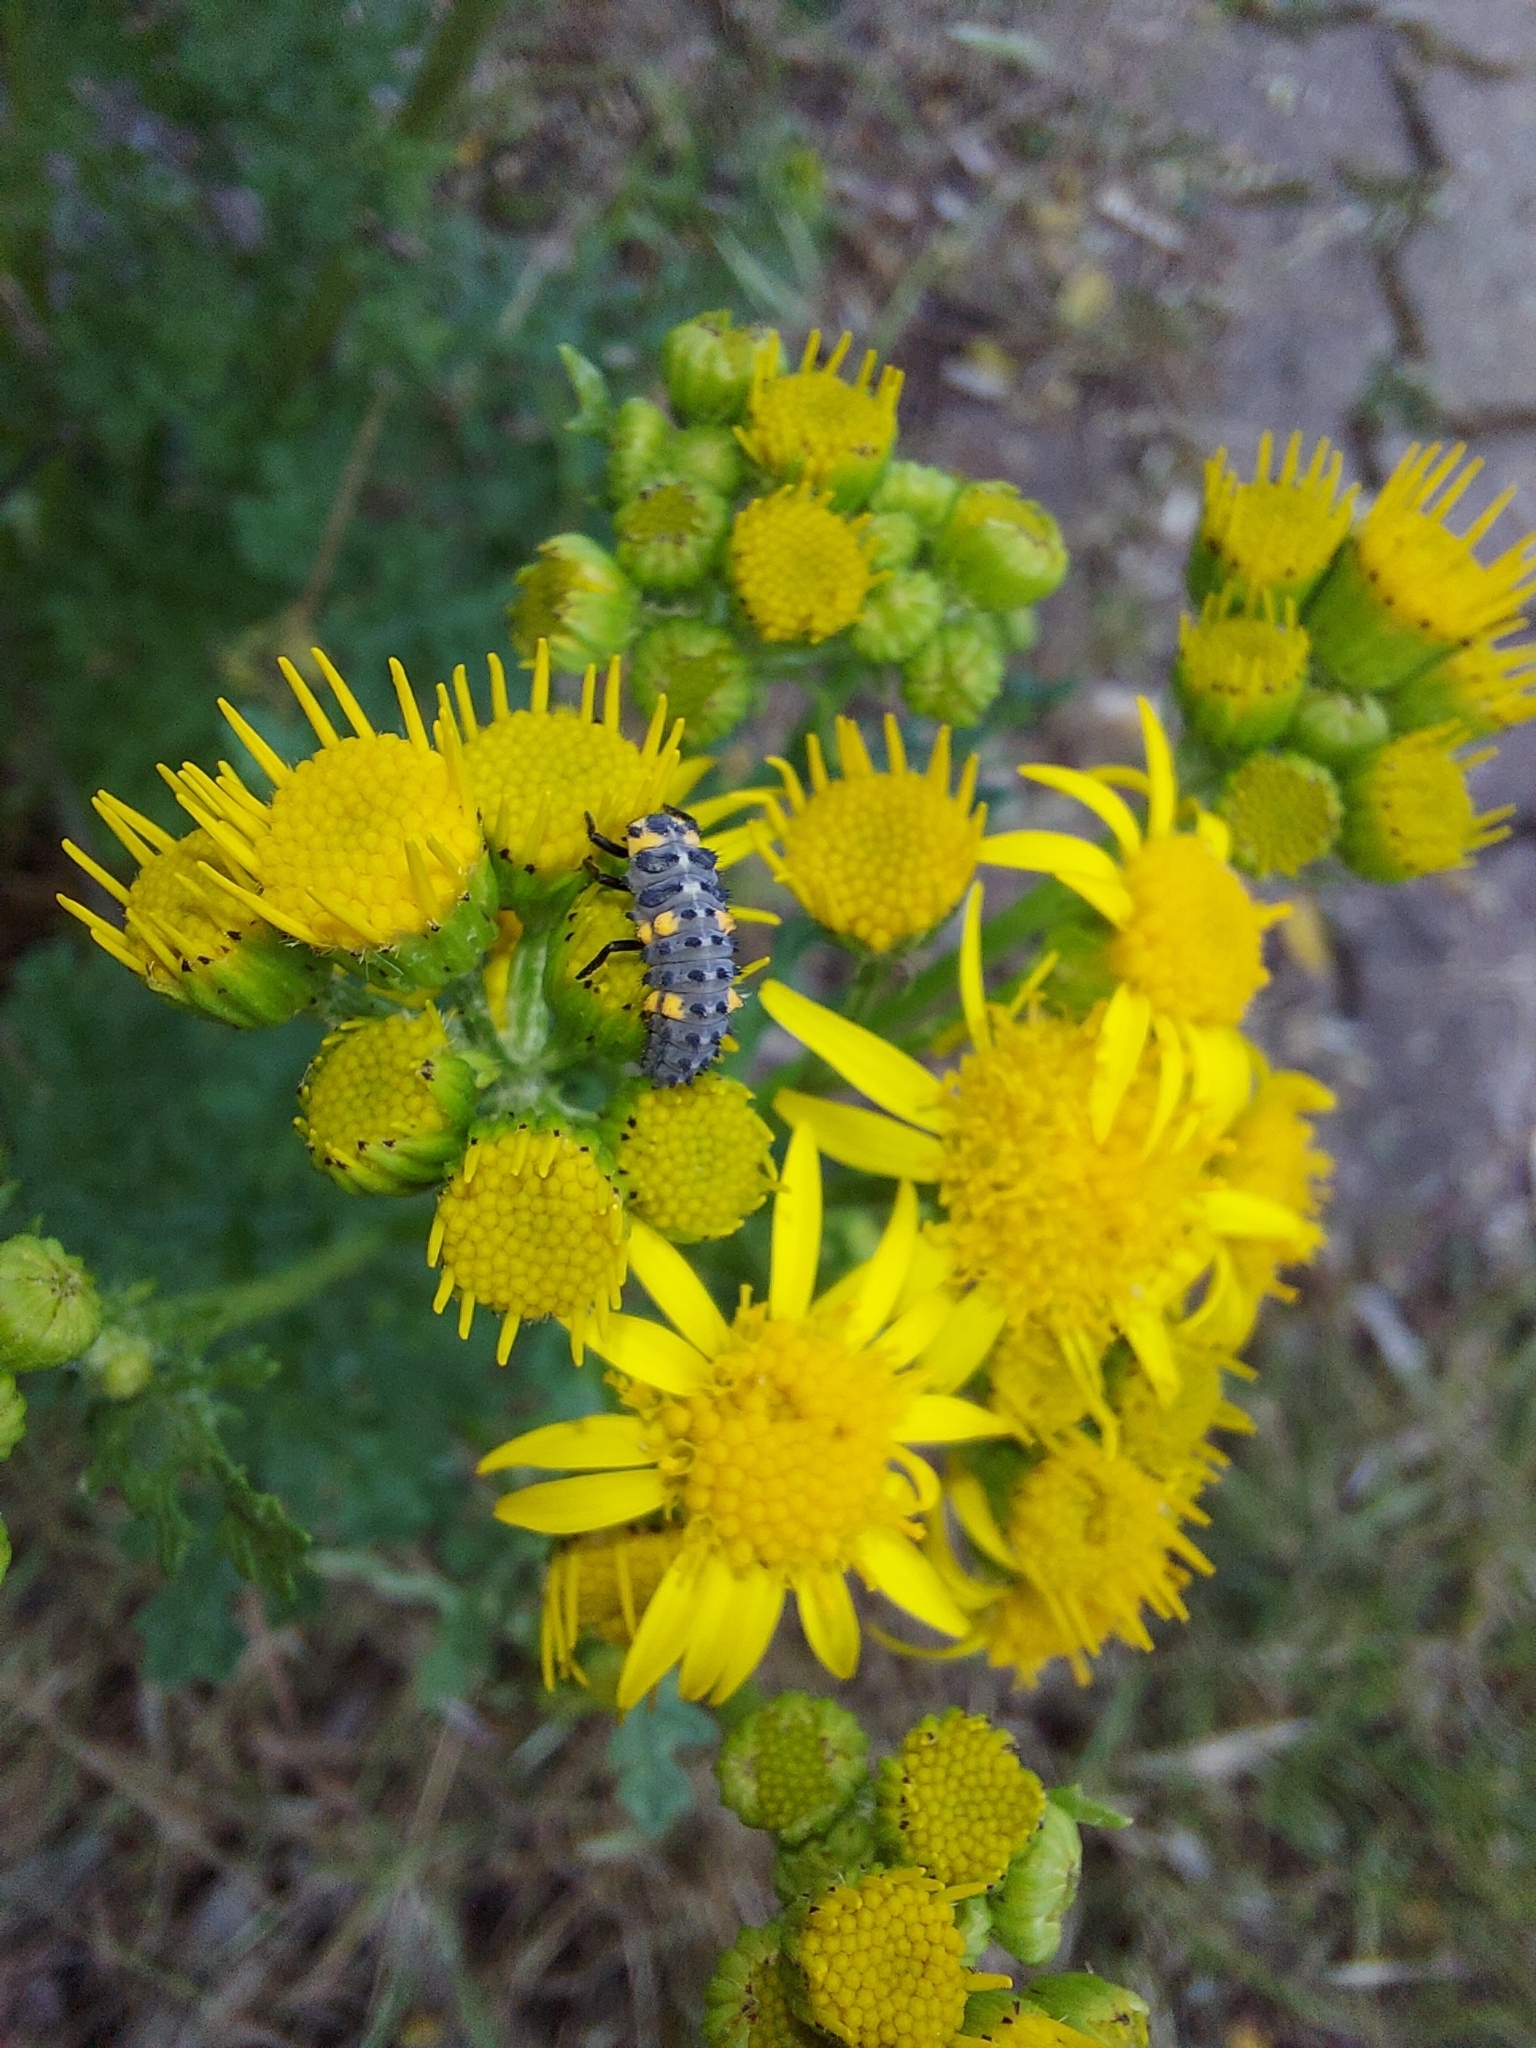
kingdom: Animalia
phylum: Arthropoda
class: Insecta
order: Coleoptera
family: Coccinellidae
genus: Coccinella
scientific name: Coccinella septempunctata
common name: Sevenspotted lady beetle
